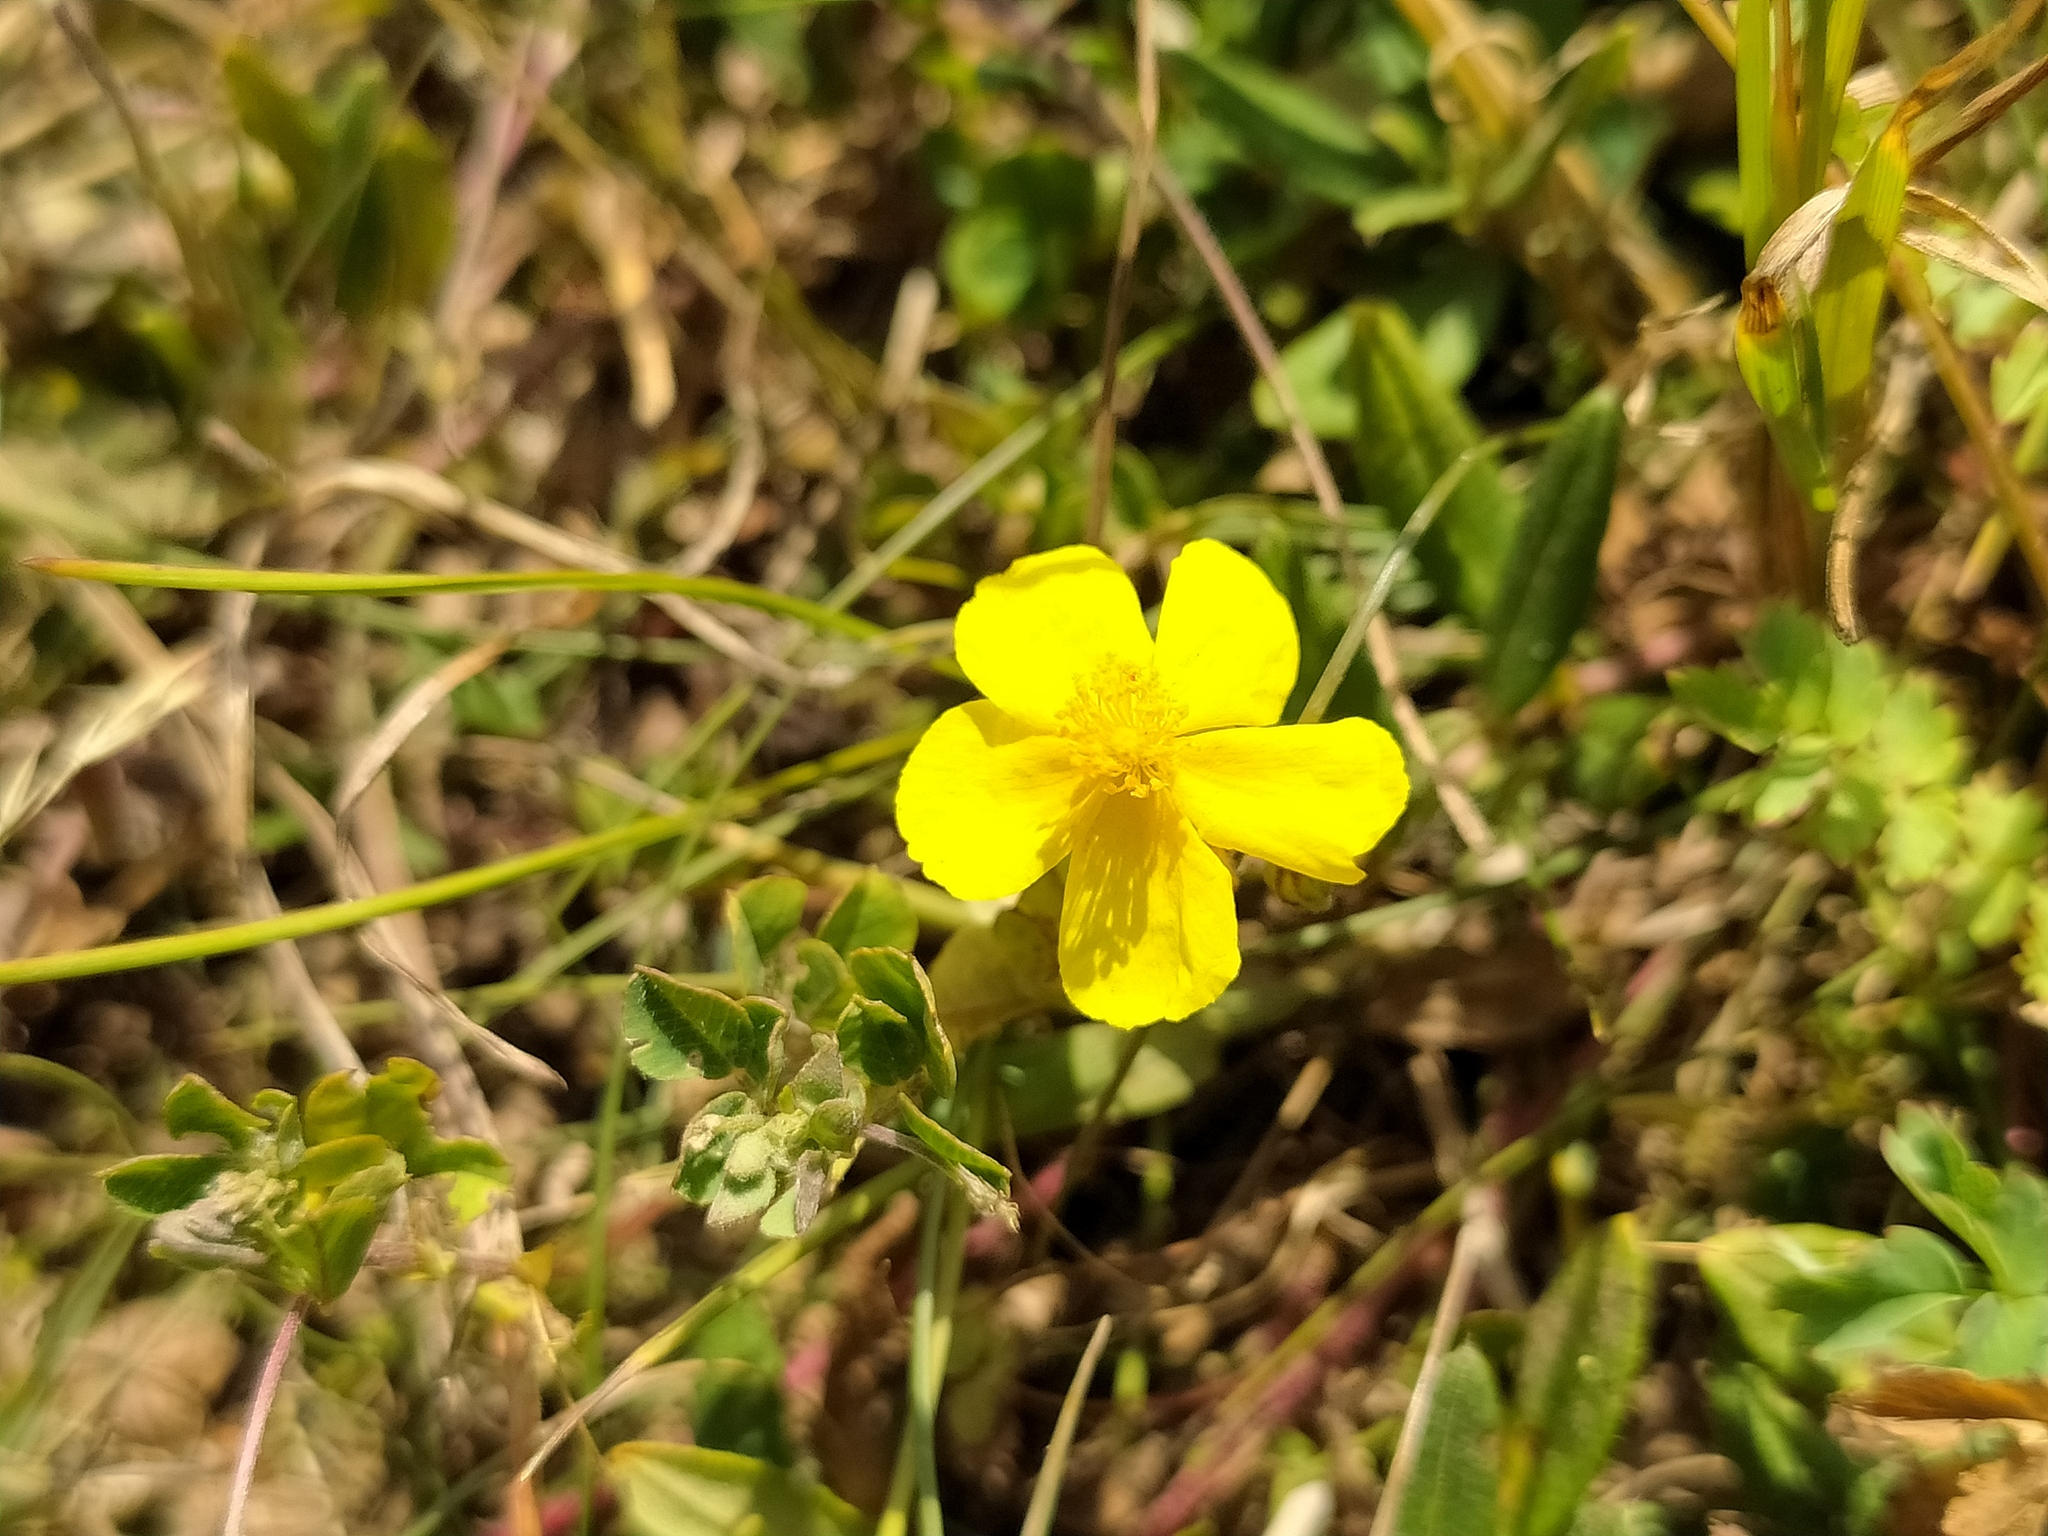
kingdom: Plantae
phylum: Tracheophyta
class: Magnoliopsida
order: Malvales
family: Cistaceae
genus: Helianthemum
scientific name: Helianthemum nummularium
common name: Common rock-rose
